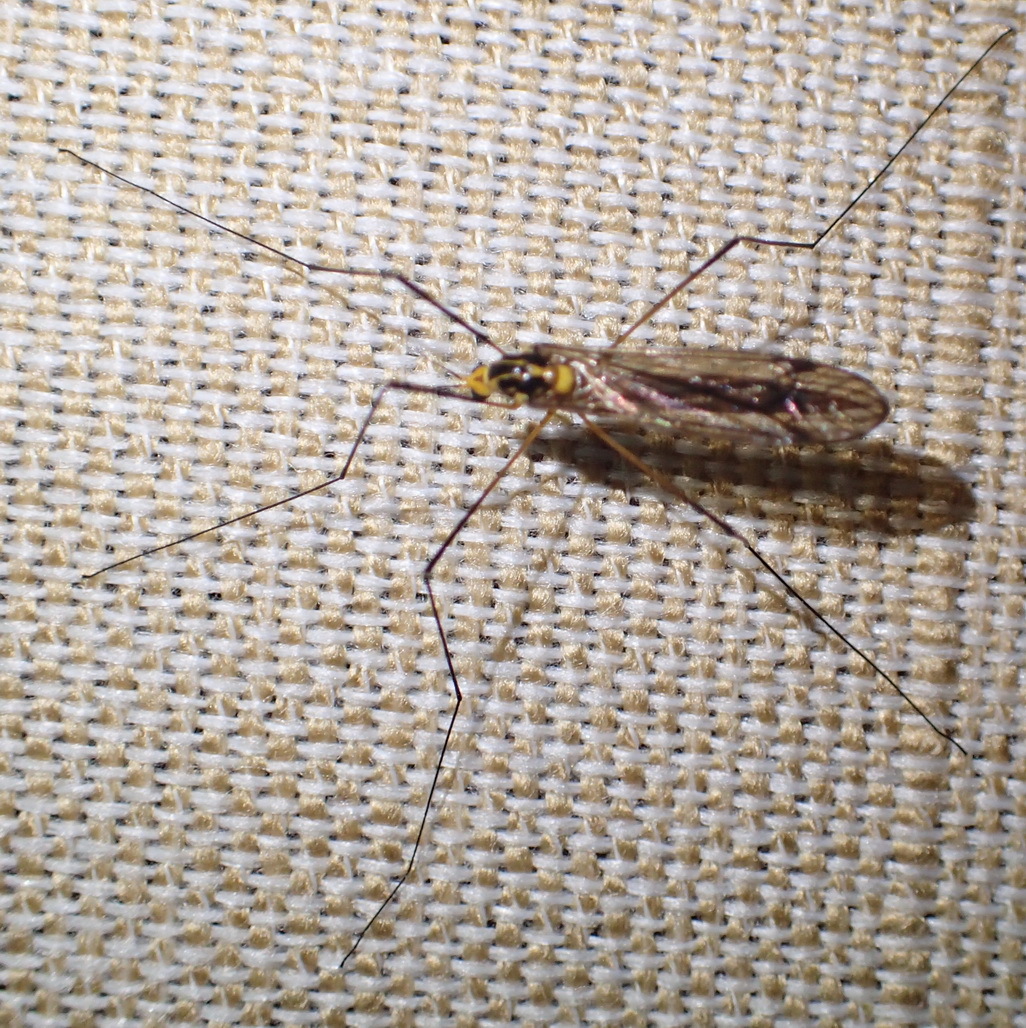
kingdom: Animalia
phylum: Arthropoda
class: Insecta
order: Diptera
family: Limoniidae
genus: Dicranoptycha
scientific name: Dicranoptycha stuckenbergi
